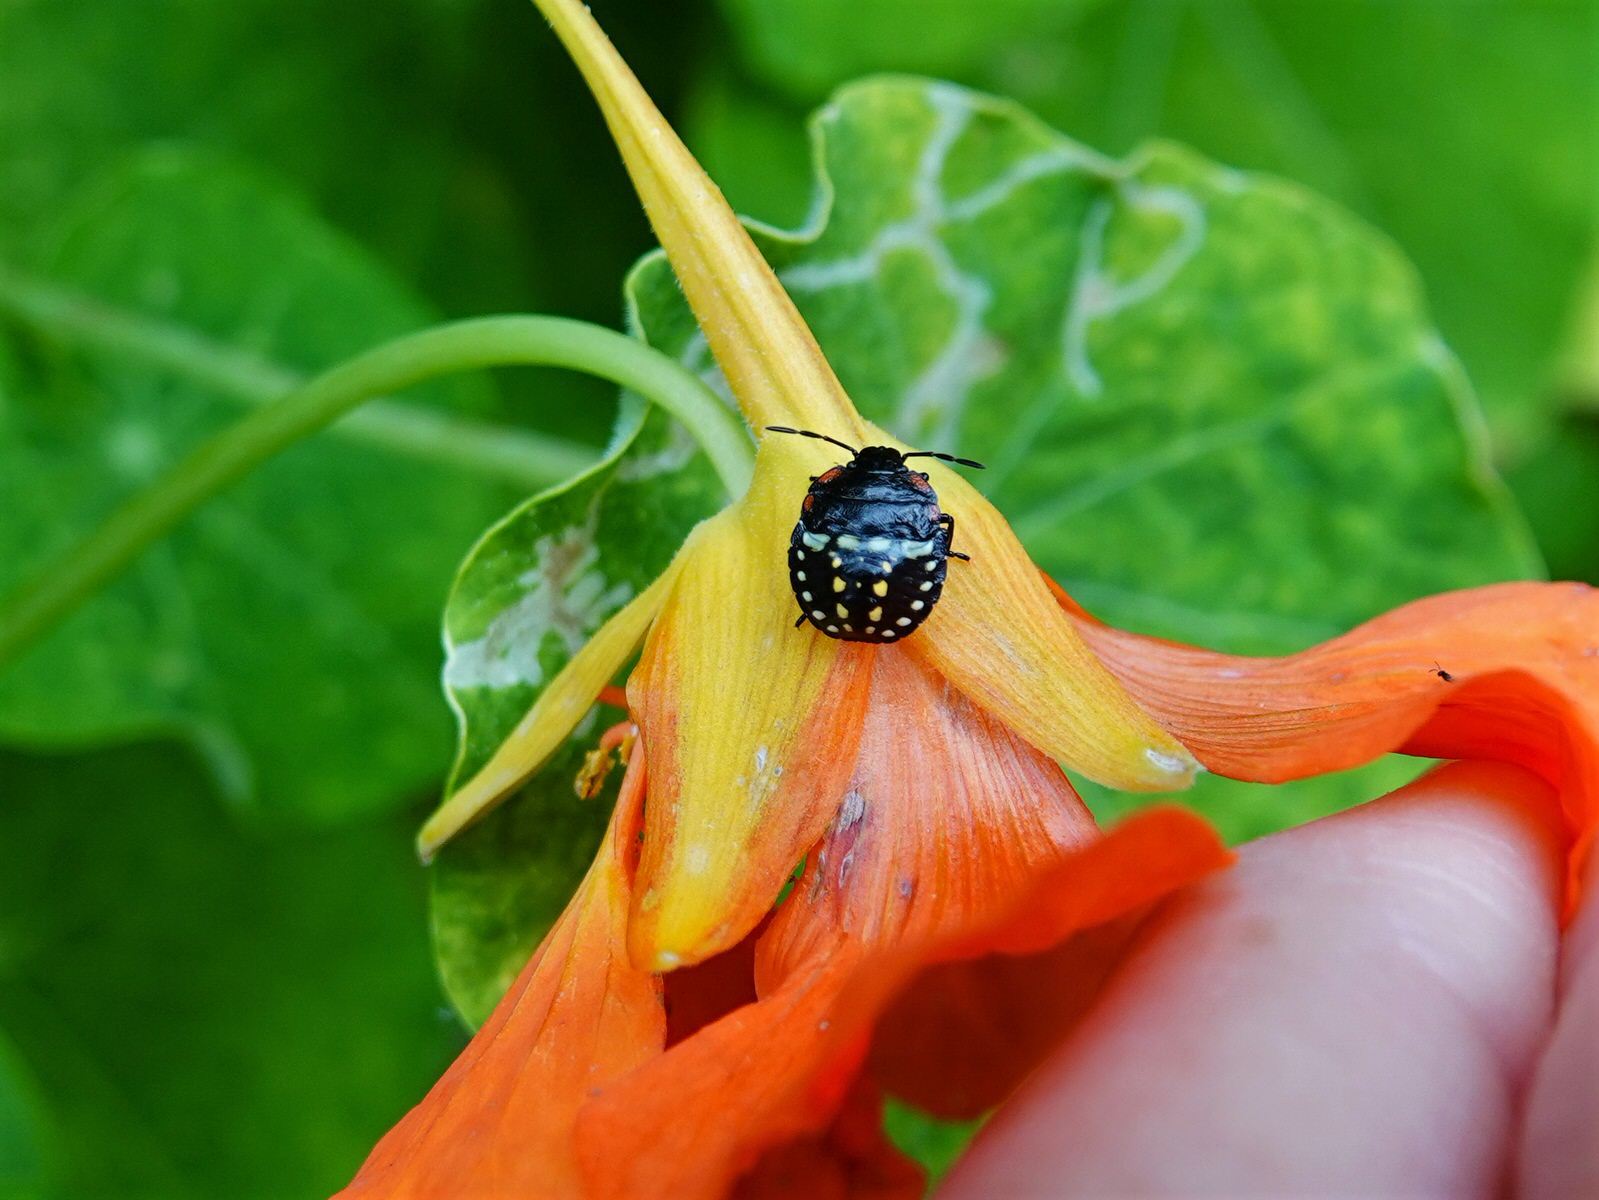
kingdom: Animalia
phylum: Arthropoda
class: Insecta
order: Hemiptera
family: Pentatomidae
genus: Nezara
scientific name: Nezara viridula
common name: Southern green stink bug
